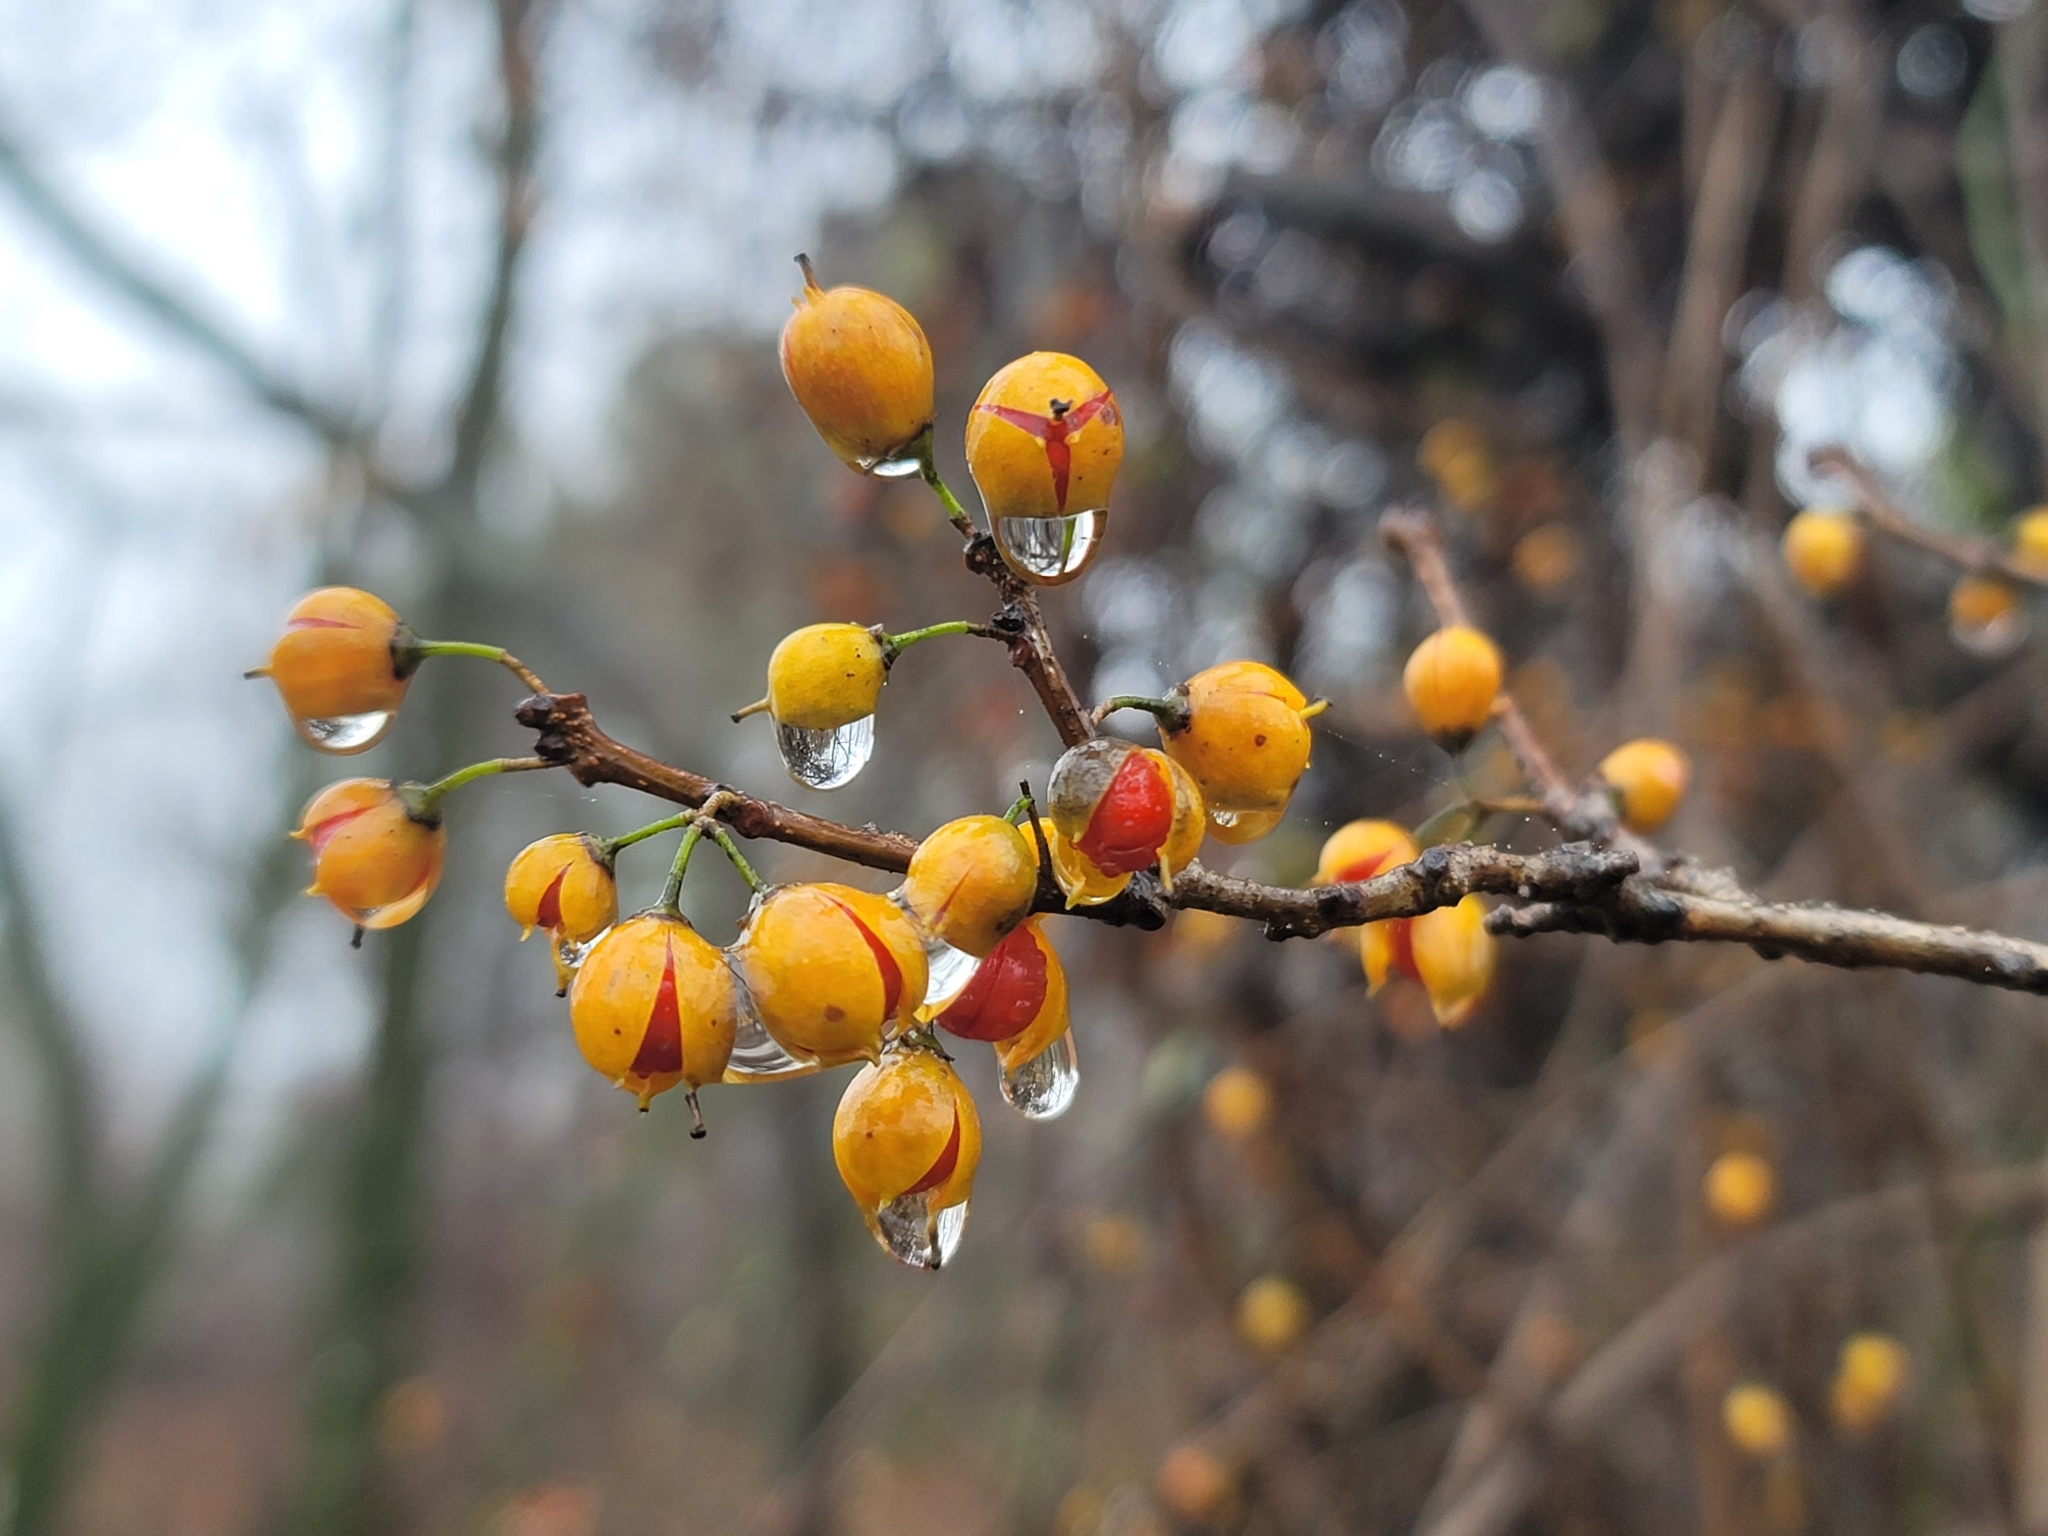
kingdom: Plantae
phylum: Tracheophyta
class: Magnoliopsida
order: Celastrales
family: Celastraceae
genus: Celastrus
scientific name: Celastrus orbiculatus
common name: Oriental bittersweet
